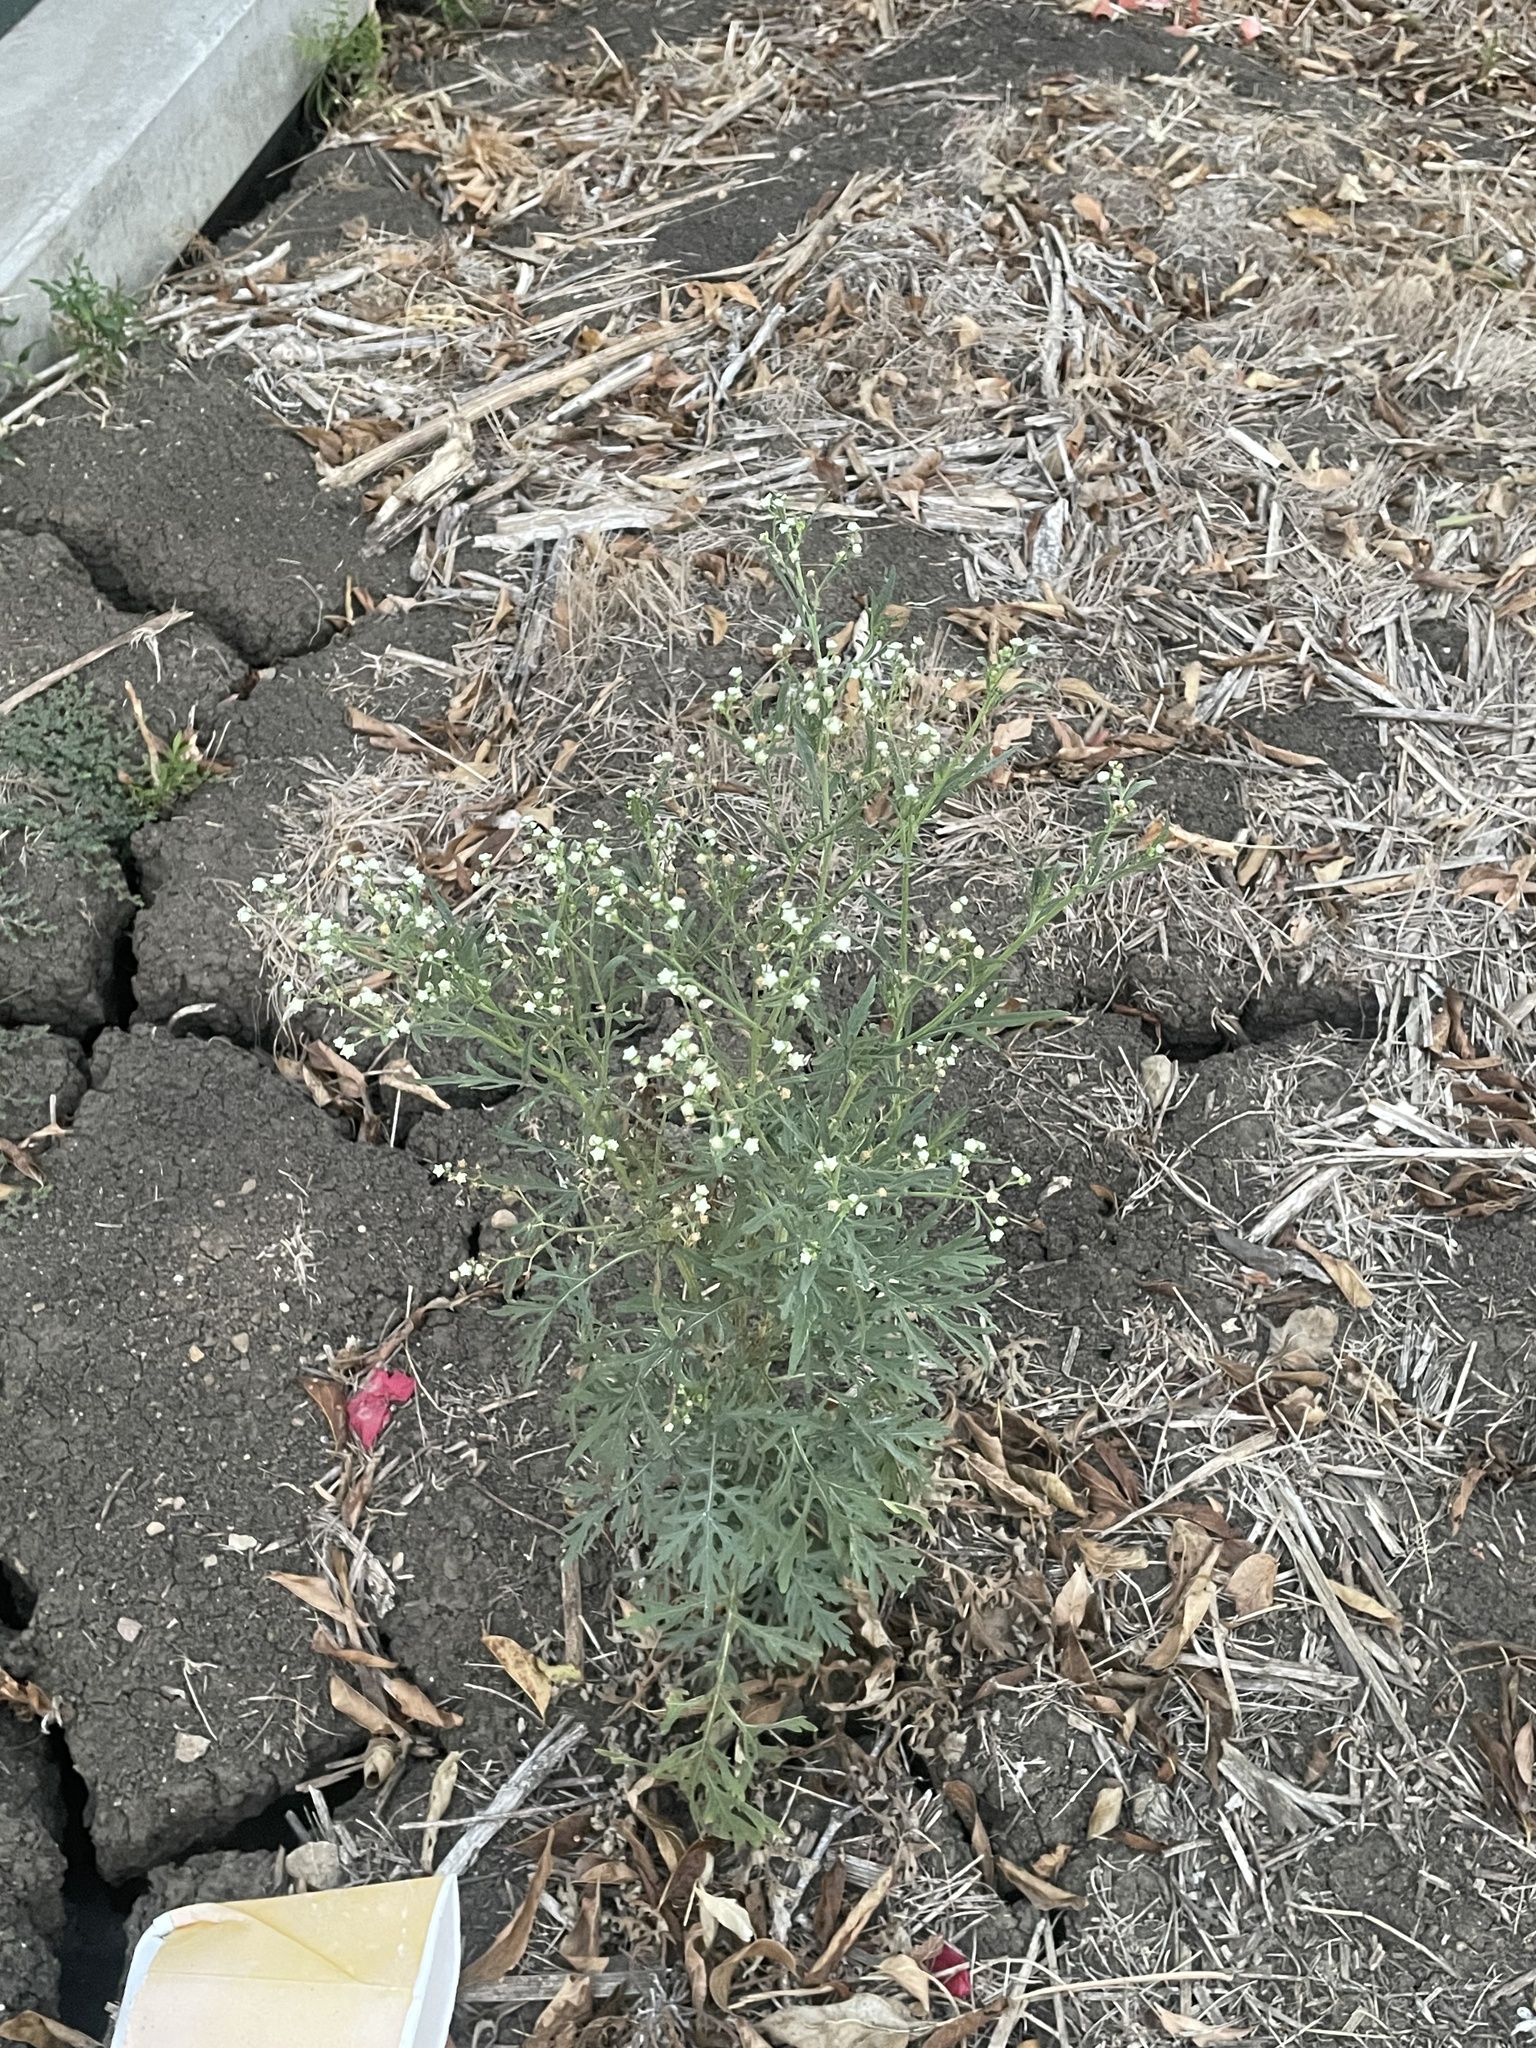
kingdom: Plantae
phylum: Tracheophyta
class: Magnoliopsida
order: Asterales
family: Asteraceae
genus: Parthenium
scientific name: Parthenium hysterophorus
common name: Santa maria feverfew
